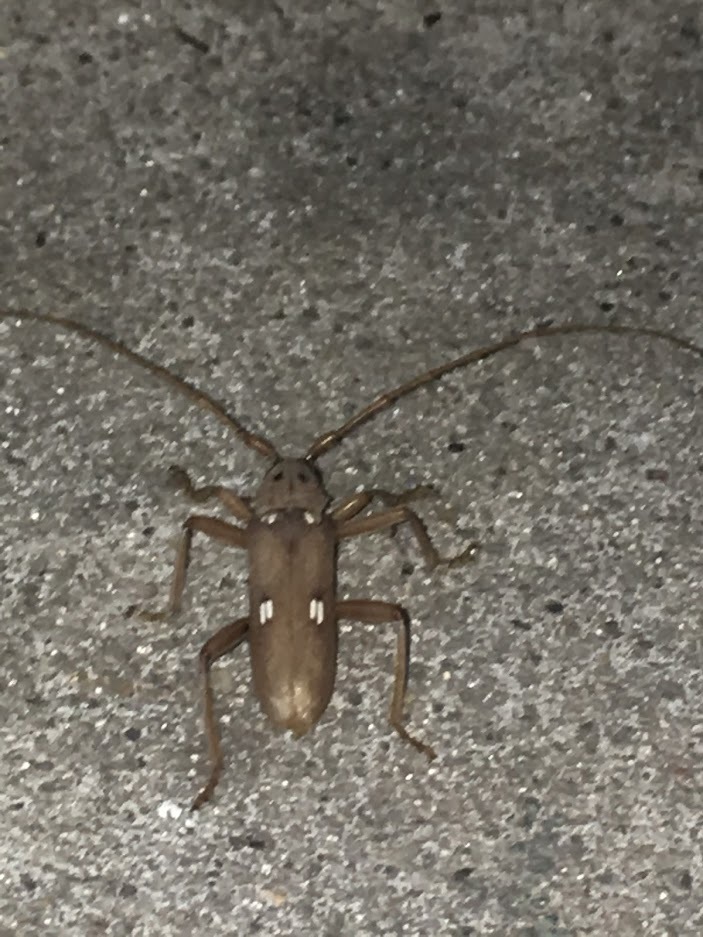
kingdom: Animalia
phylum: Arthropoda
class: Insecta
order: Coleoptera
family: Cerambycidae
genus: Eburia
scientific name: Eburia quadrigeminata
